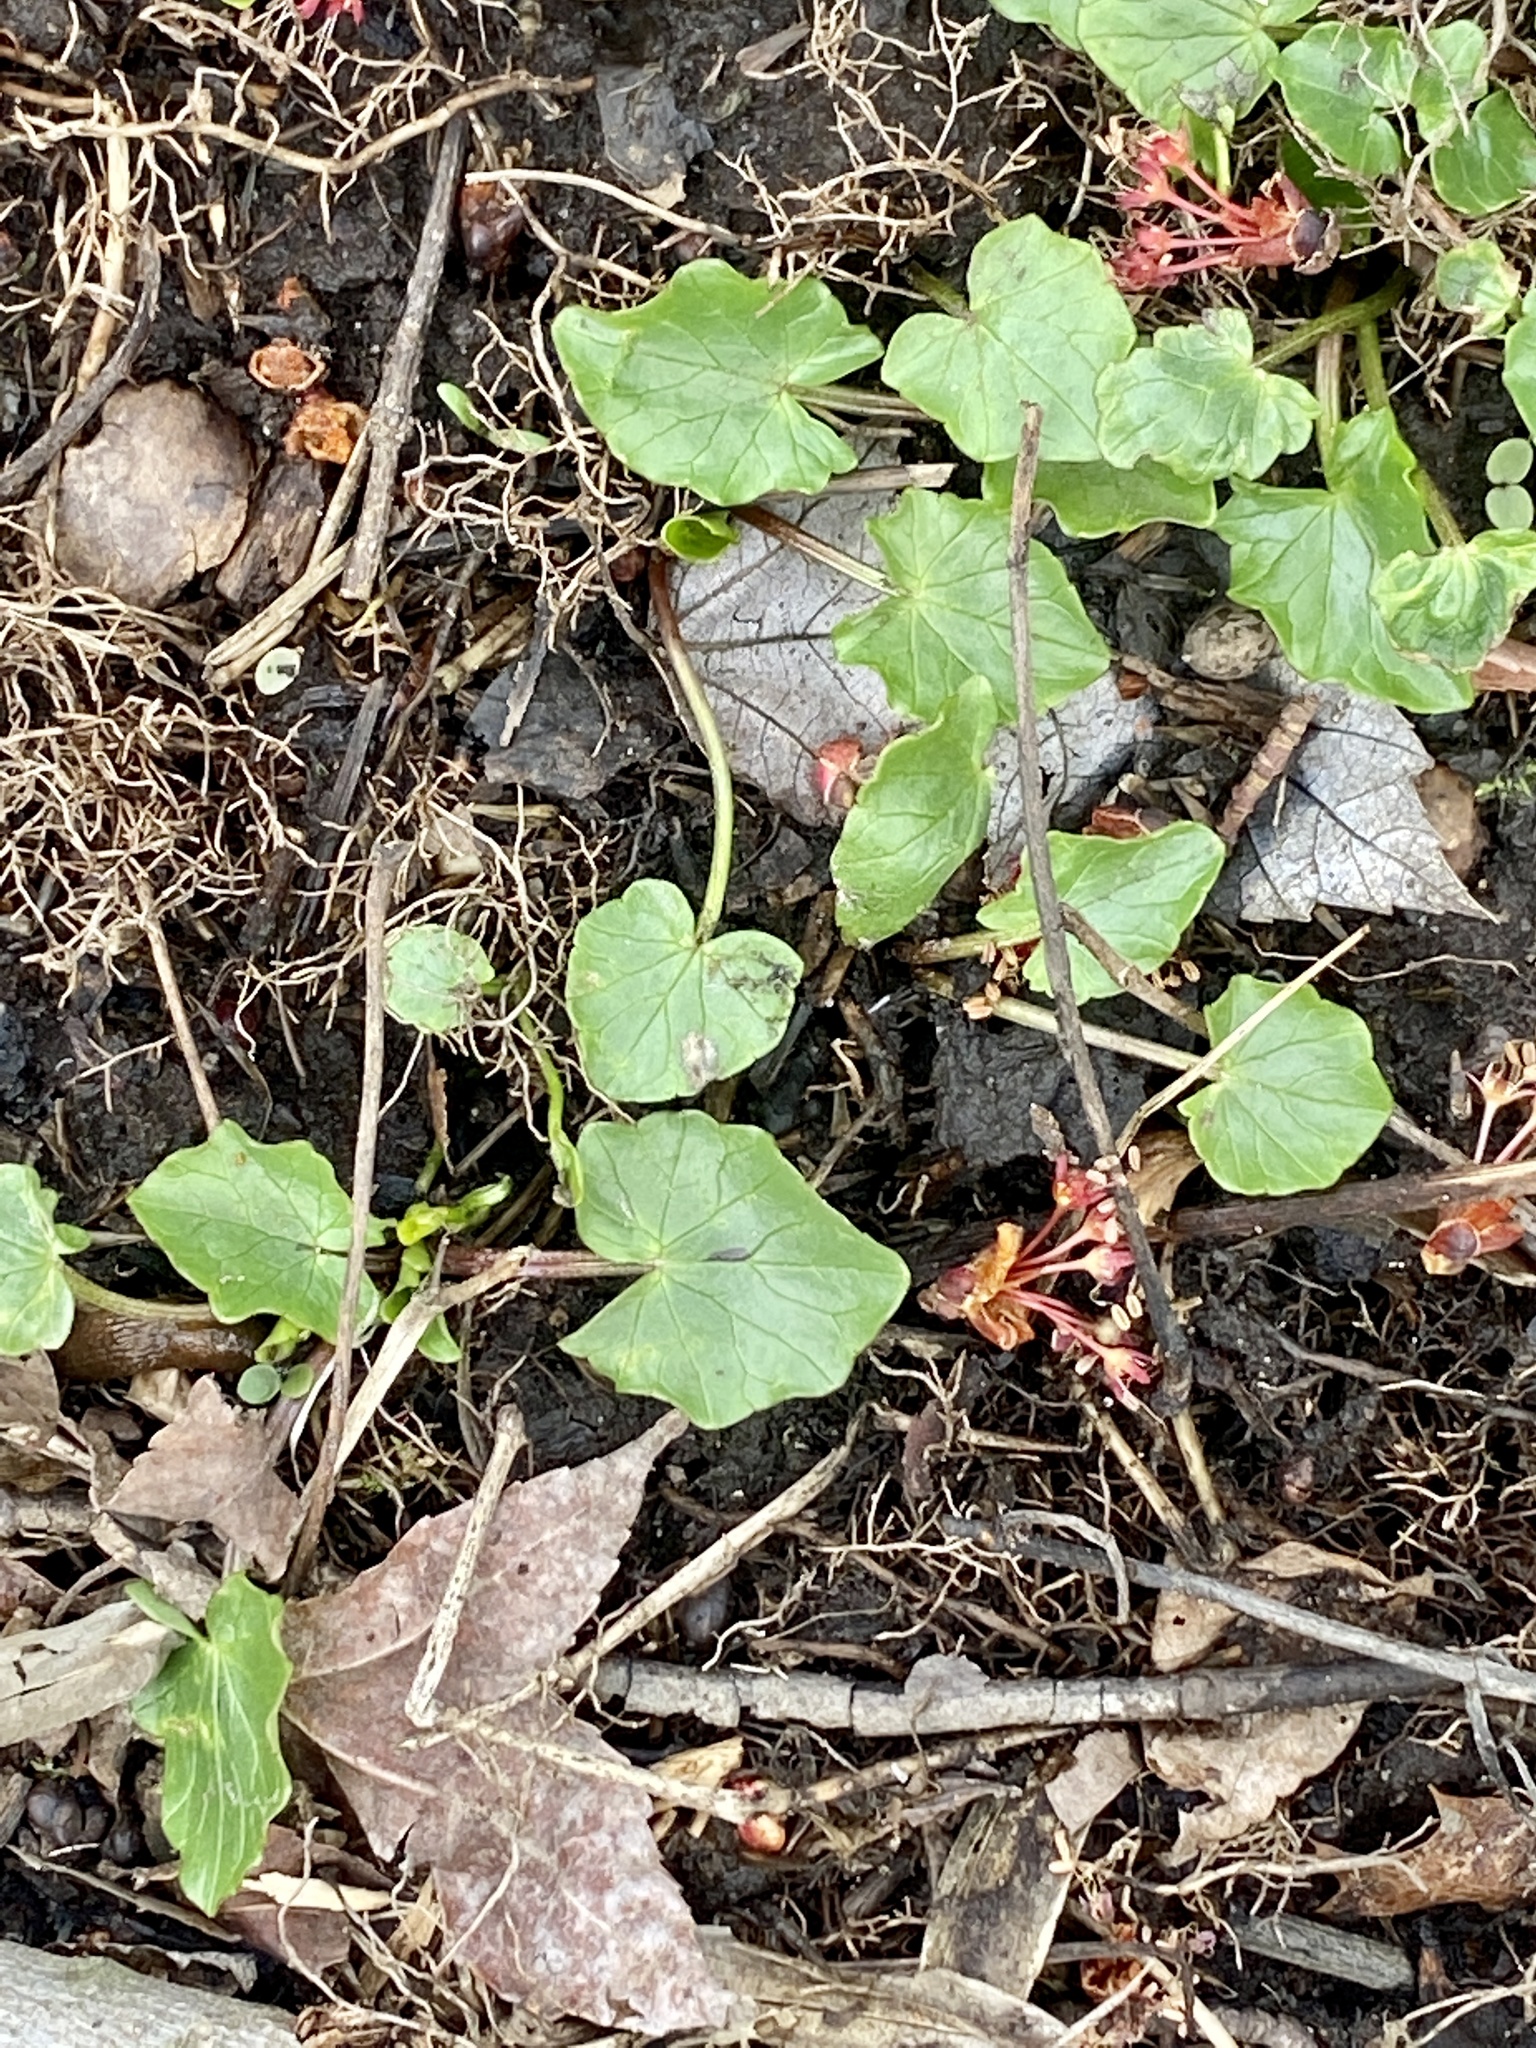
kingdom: Plantae
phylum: Tracheophyta
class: Magnoliopsida
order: Ranunculales
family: Ranunculaceae
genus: Ficaria
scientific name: Ficaria verna
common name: Lesser celandine
